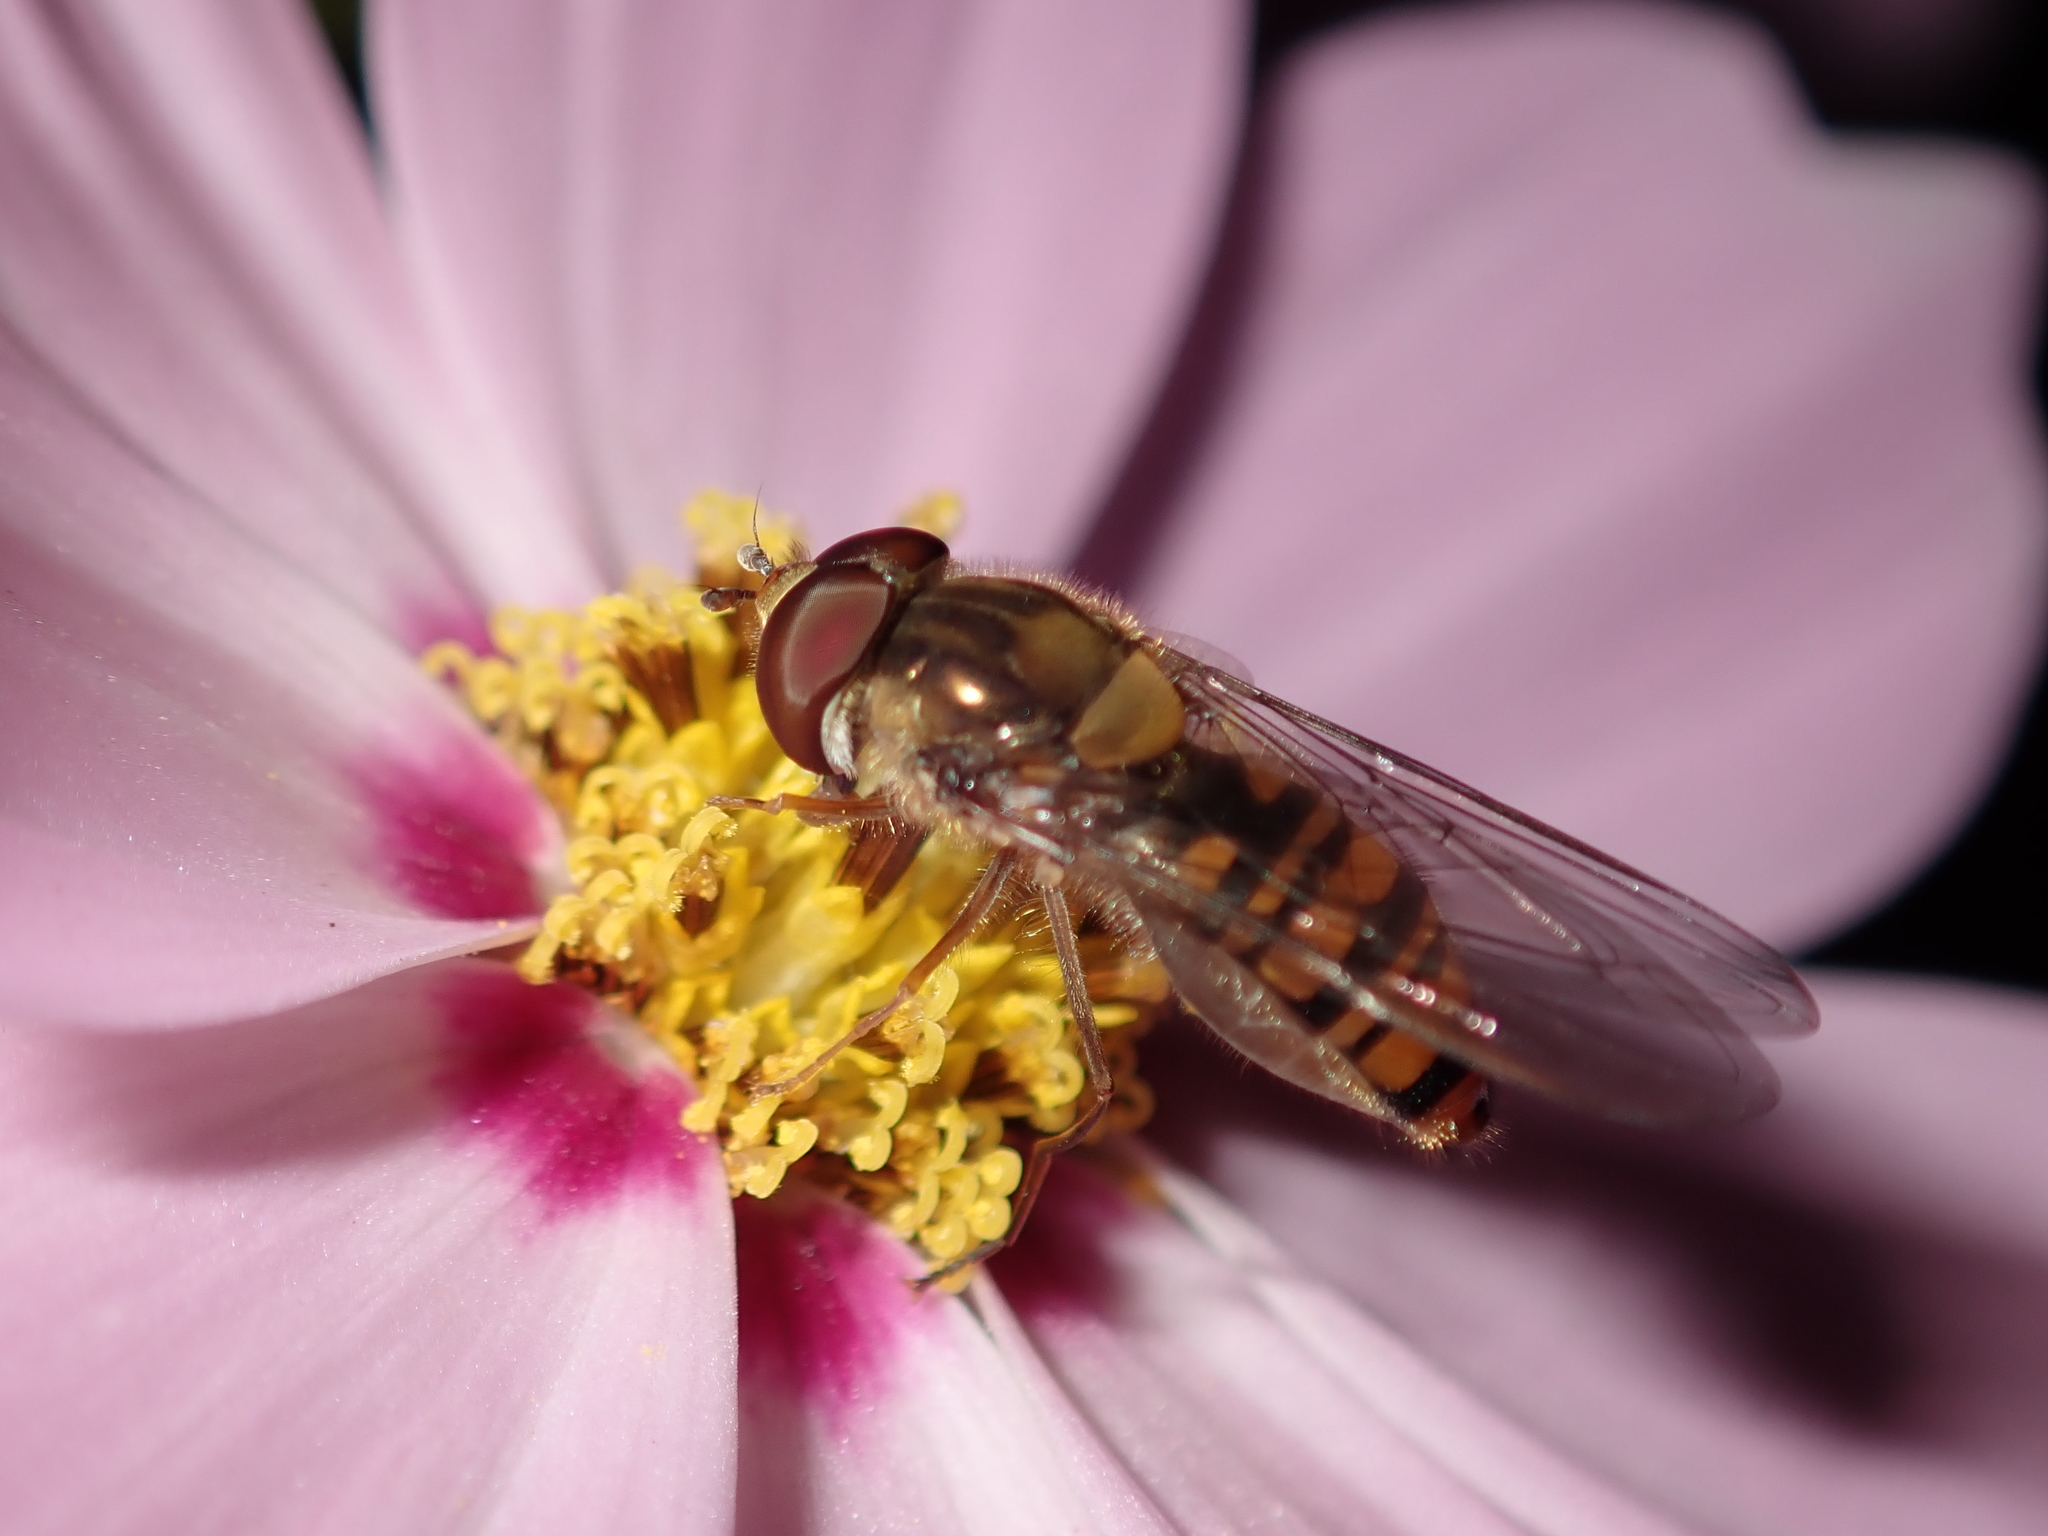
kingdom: Animalia
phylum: Arthropoda
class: Insecta
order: Diptera
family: Syrphidae
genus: Episyrphus
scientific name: Episyrphus balteatus
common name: Marmalade hoverfly
